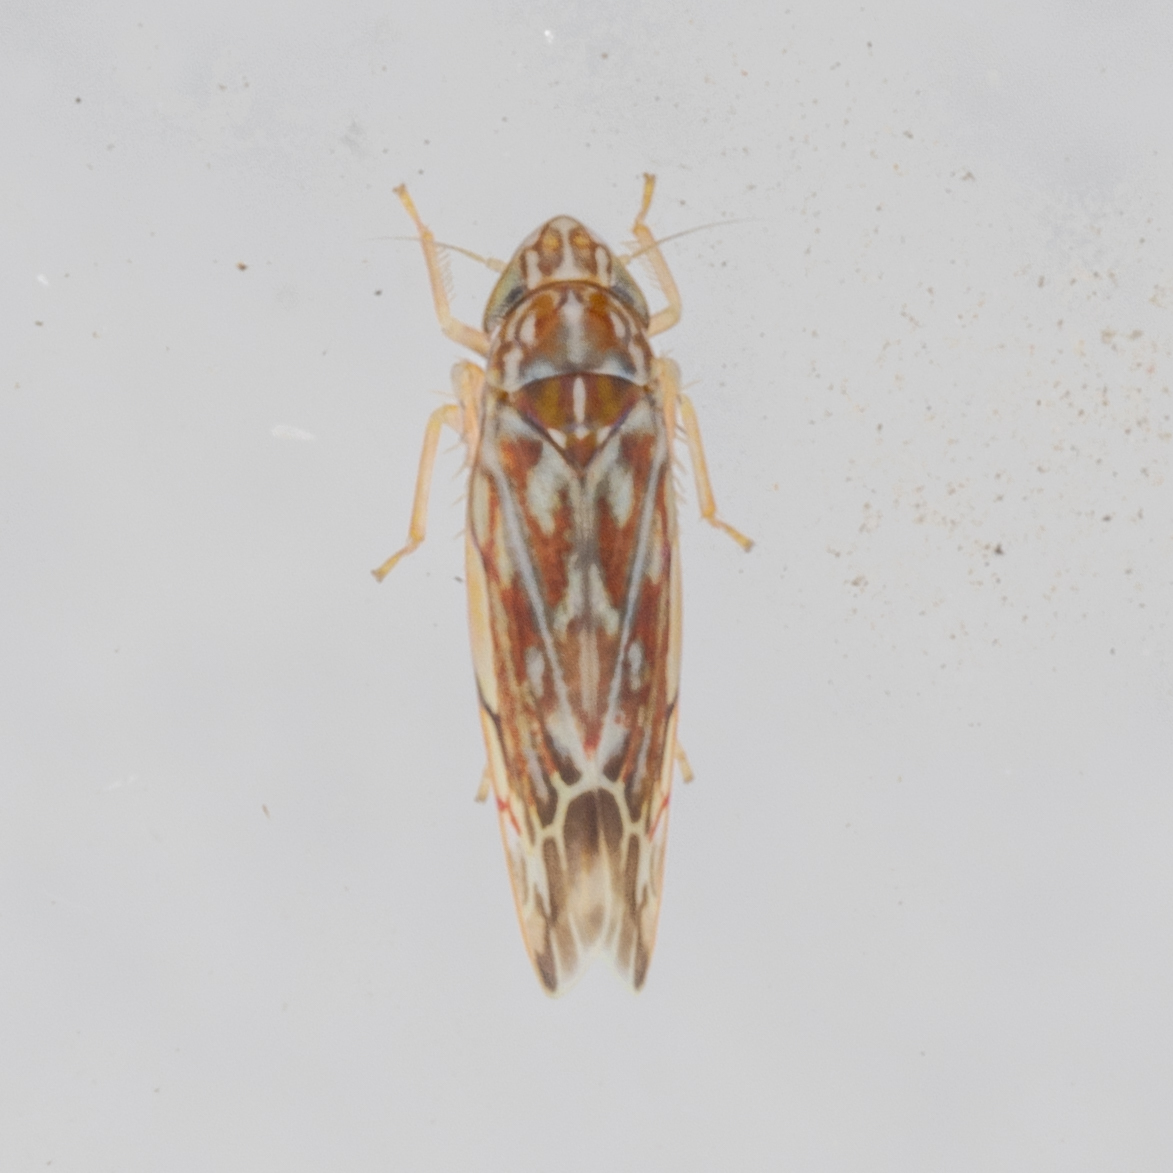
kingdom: Animalia
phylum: Arthropoda
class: Insecta
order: Hemiptera
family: Cicadellidae
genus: Erasmoneura
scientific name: Erasmoneura vulnerata
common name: The wounded leafhopper
